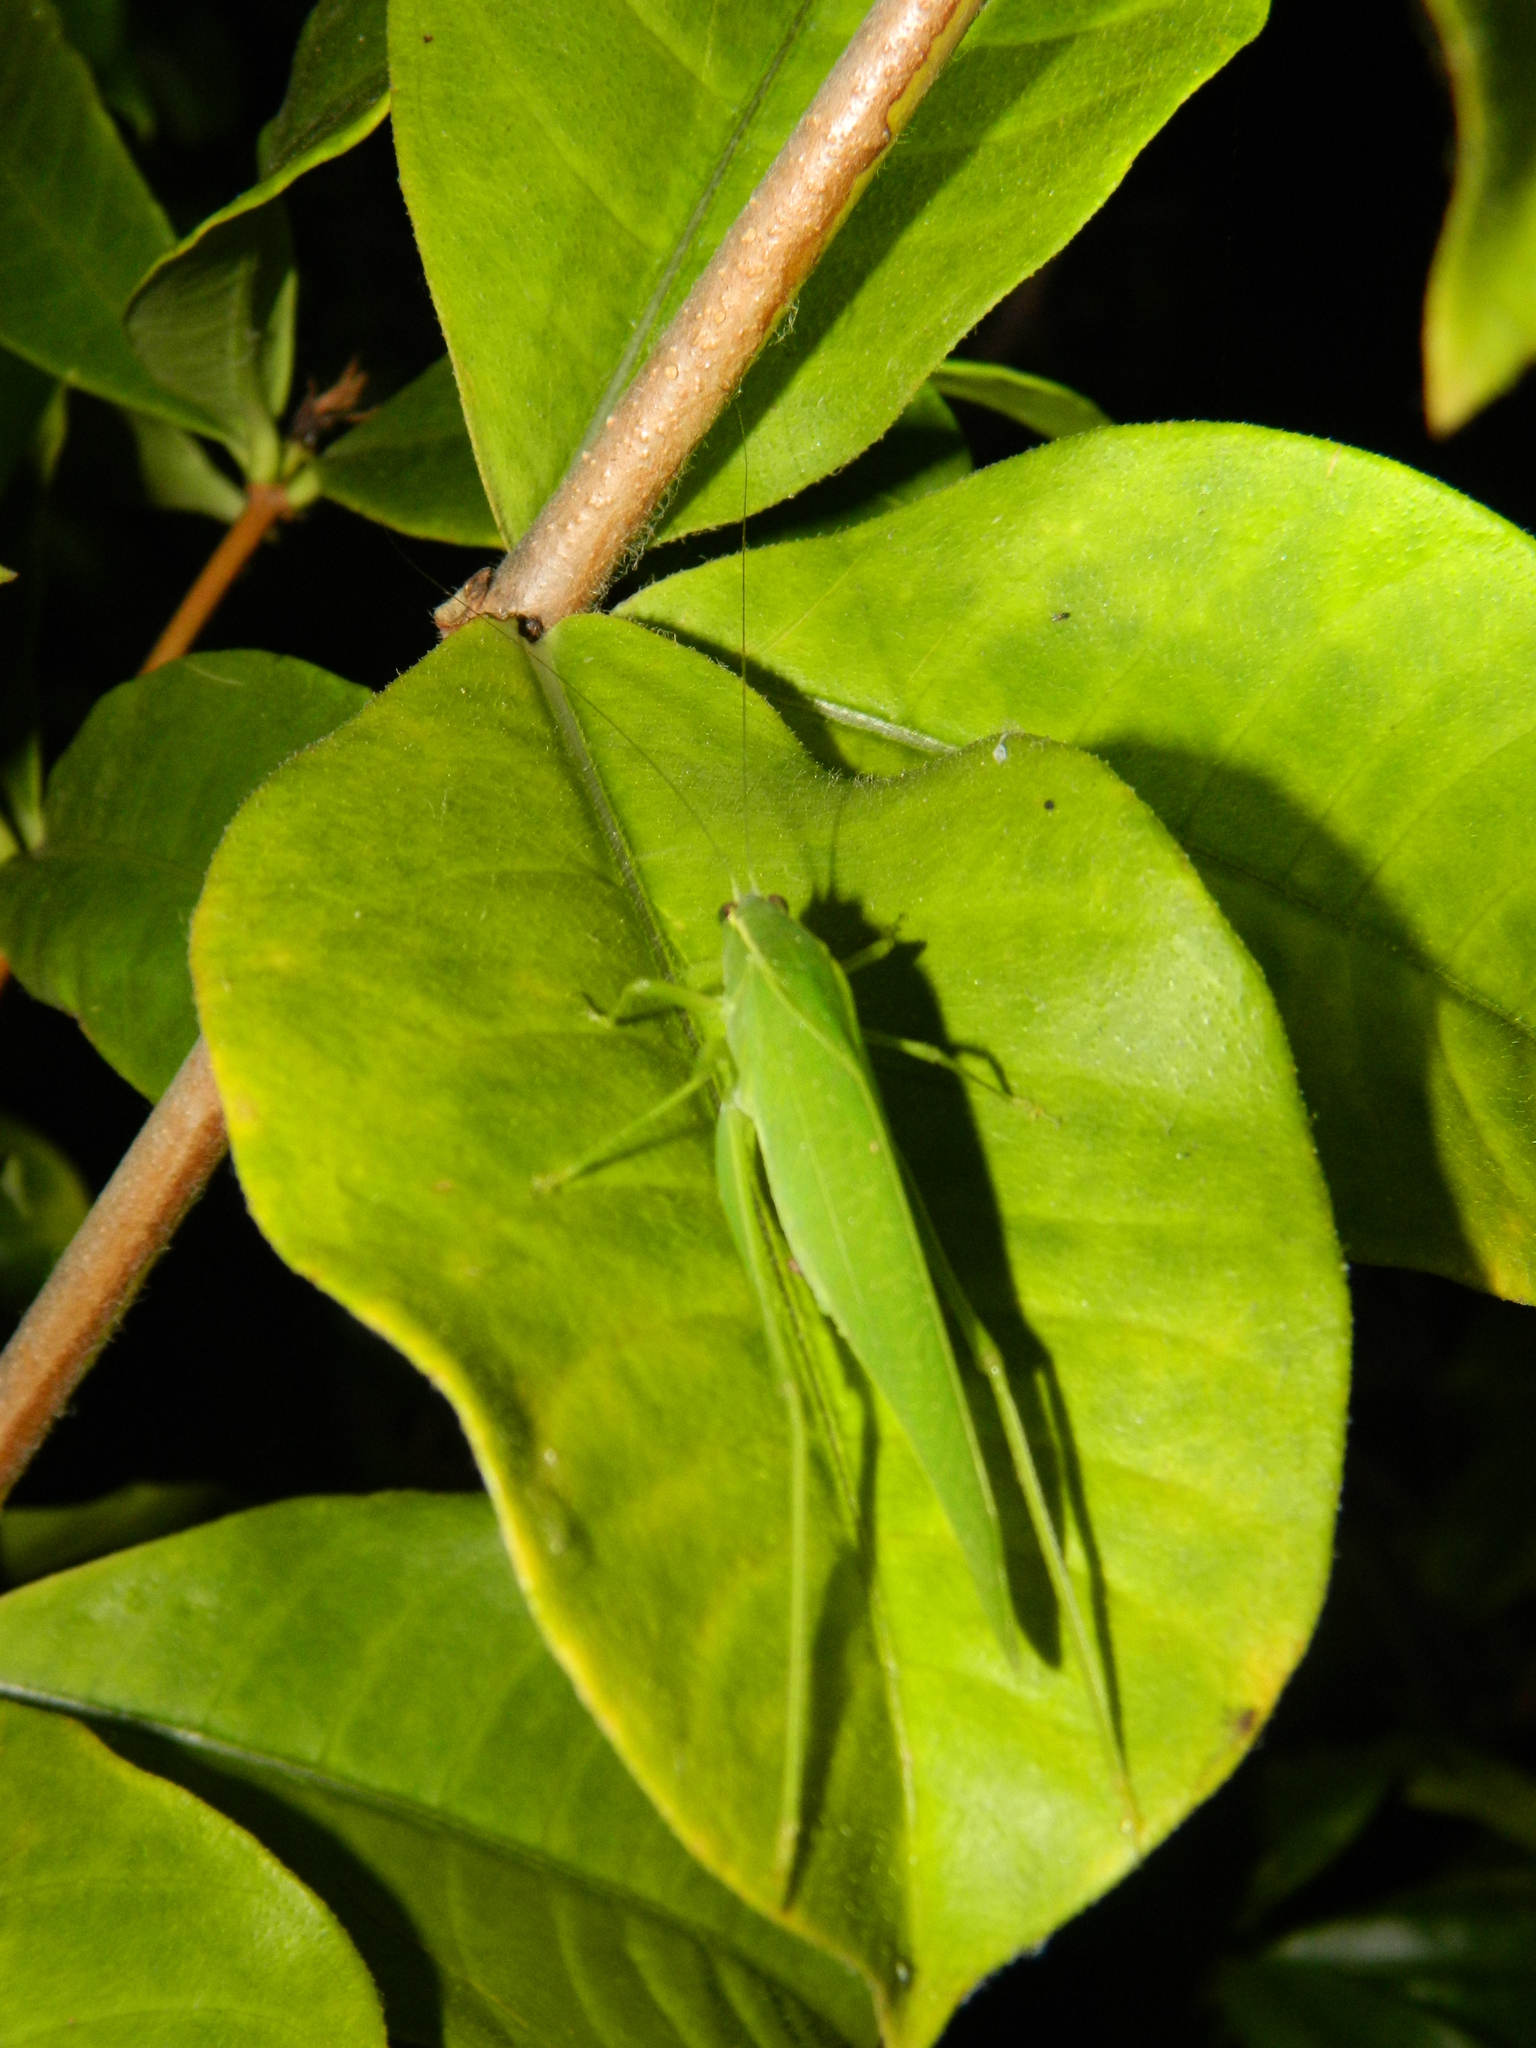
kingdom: Animalia
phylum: Arthropoda
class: Insecta
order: Orthoptera
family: Tettigoniidae
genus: Turpiliodes
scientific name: Turpiliodes mexicanum
